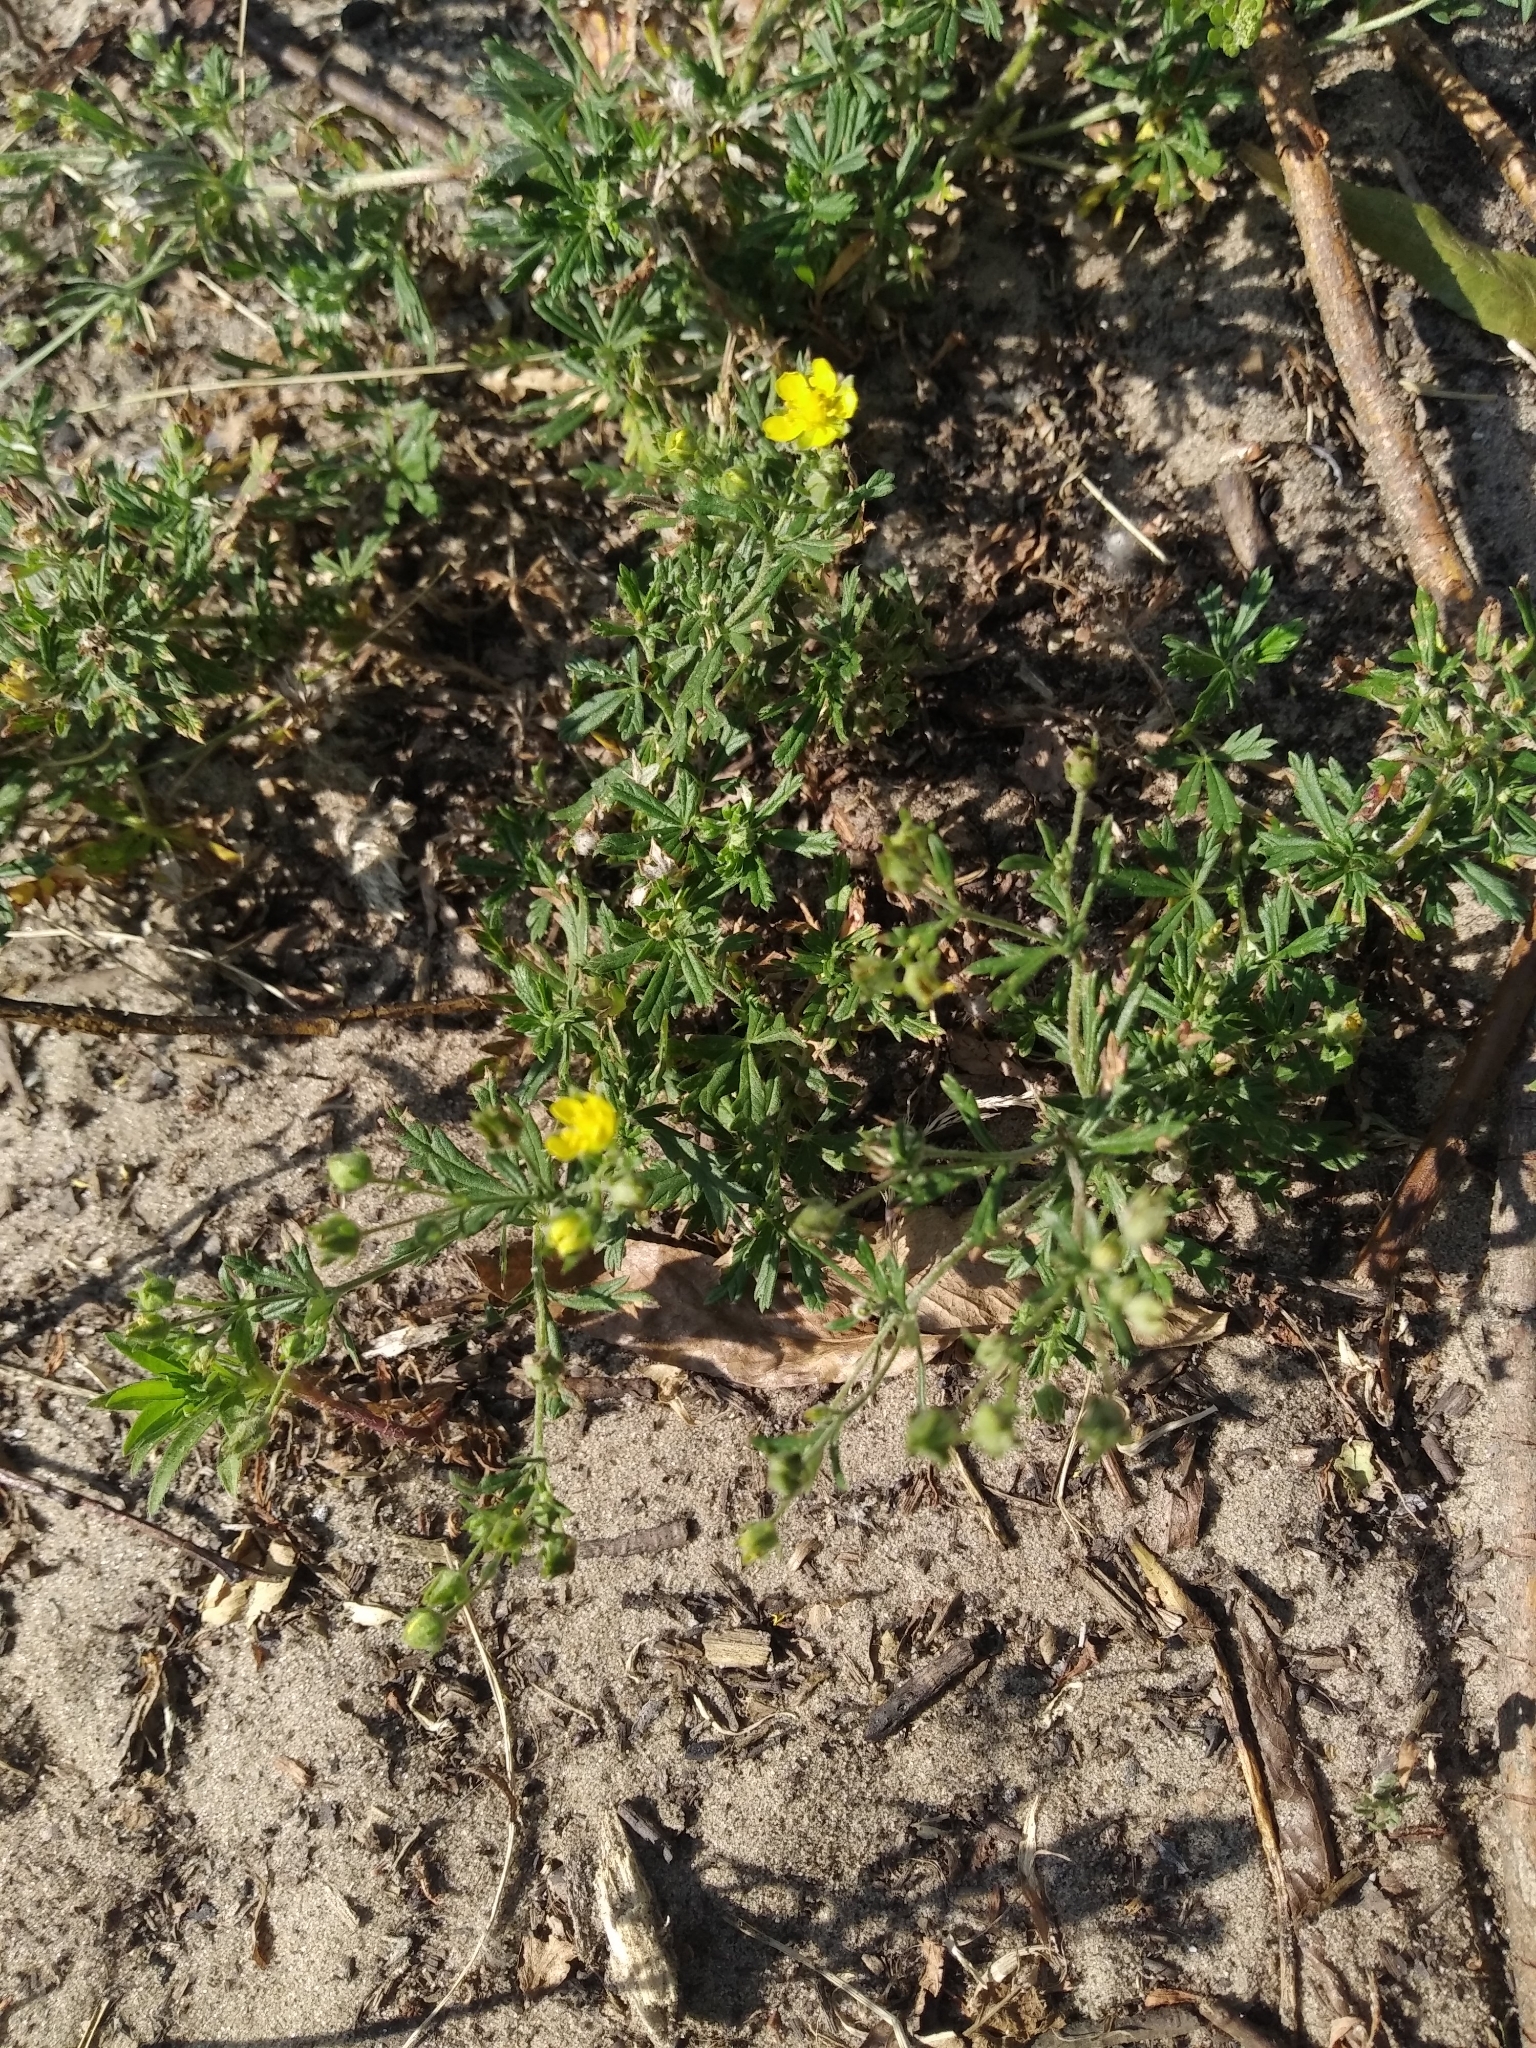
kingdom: Plantae
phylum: Tracheophyta
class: Magnoliopsida
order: Rosales
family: Rosaceae
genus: Potentilla
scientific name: Potentilla argentea
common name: Hoary cinquefoil
